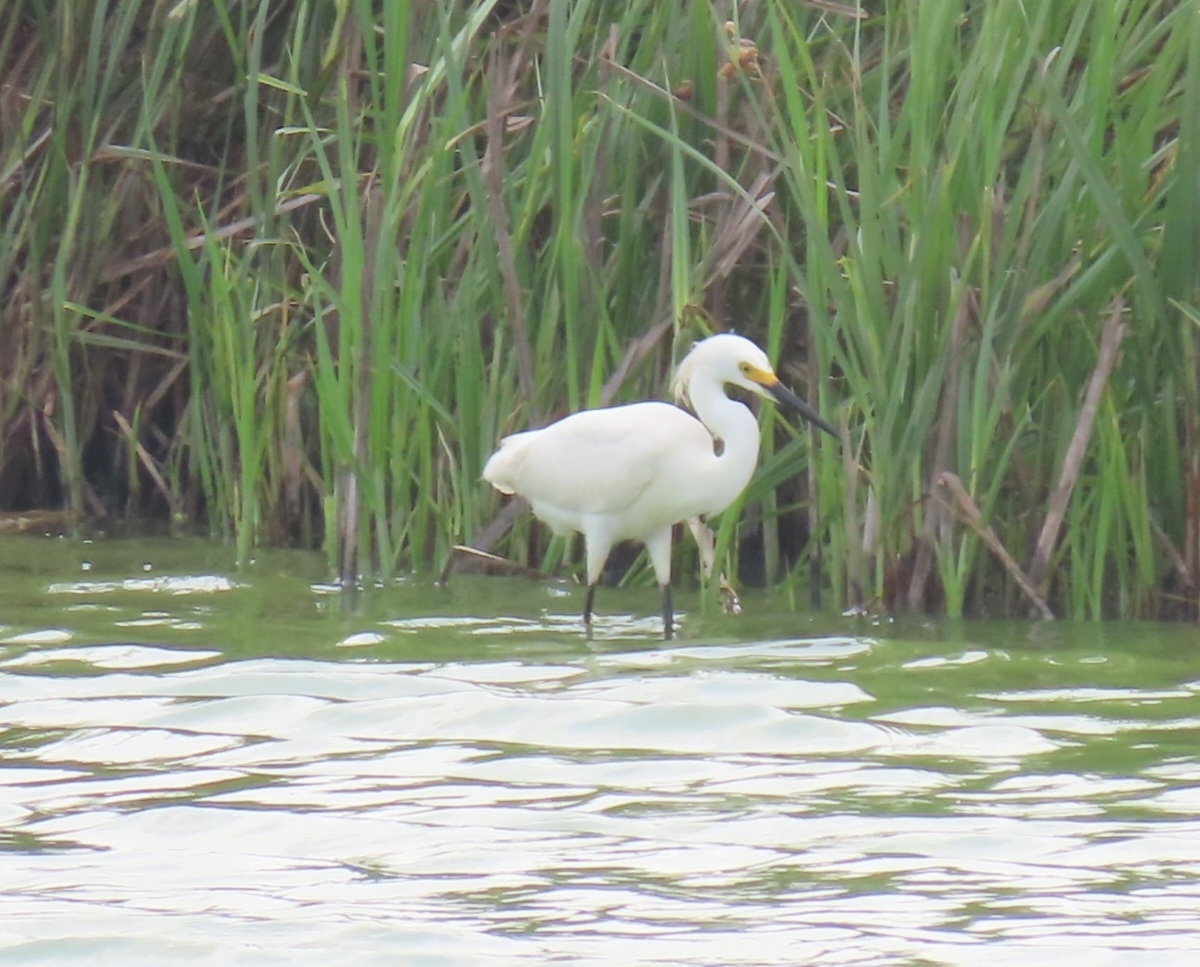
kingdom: Animalia
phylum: Chordata
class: Aves
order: Pelecaniformes
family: Ardeidae
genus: Egretta
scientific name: Egretta thula
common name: Snowy egret
